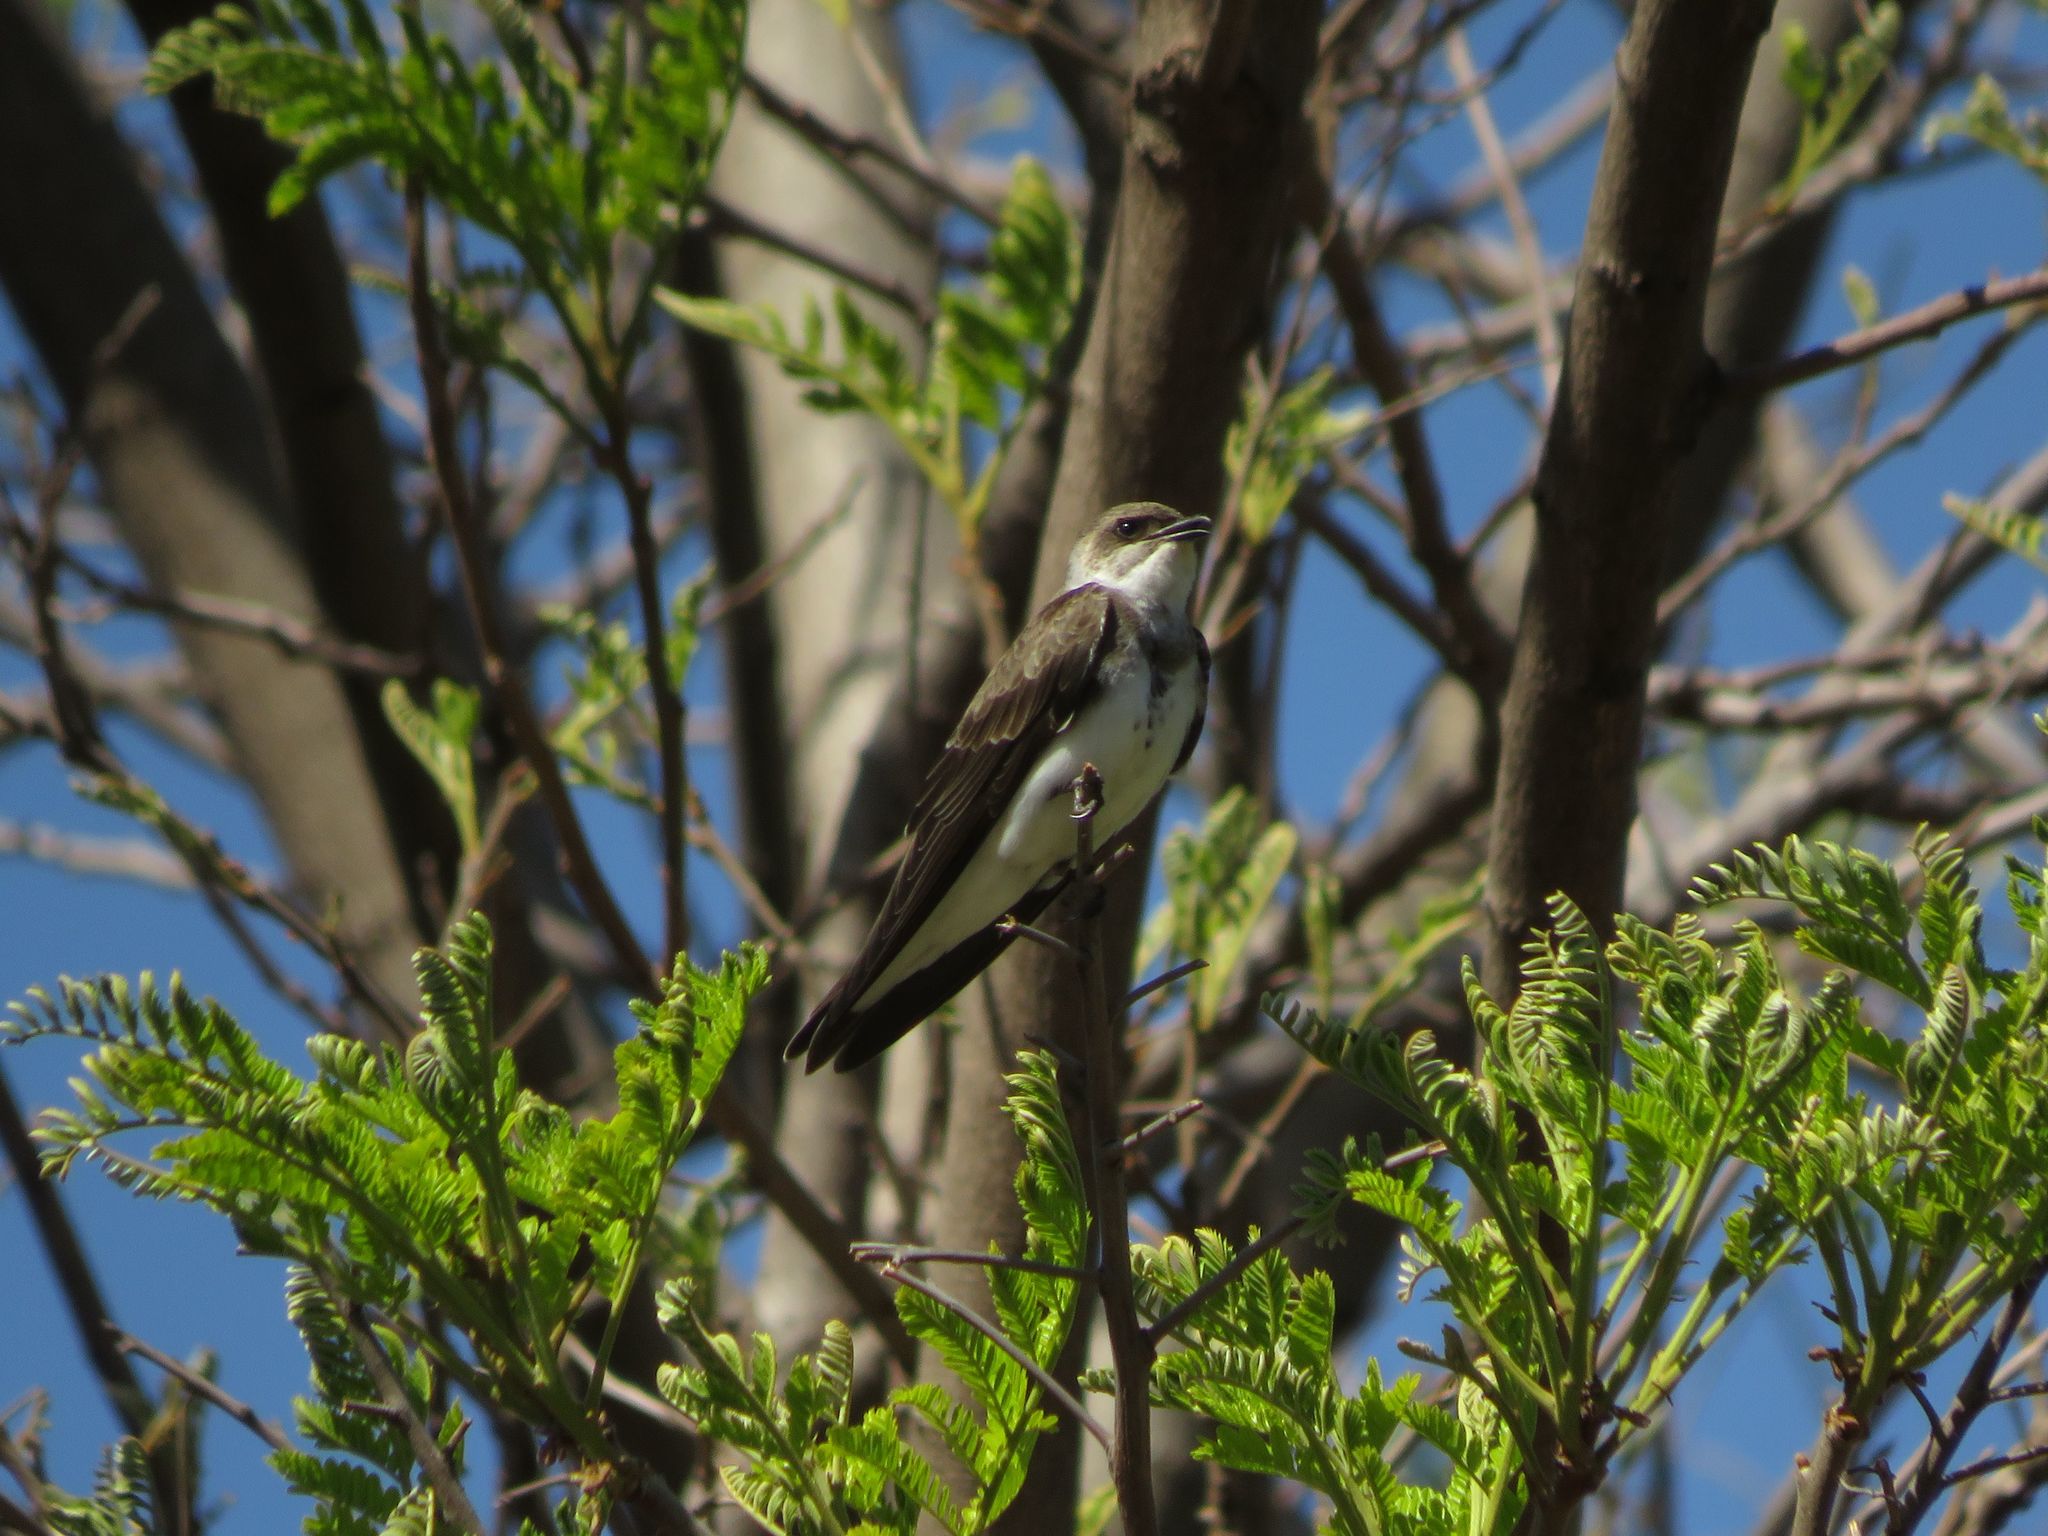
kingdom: Animalia
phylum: Chordata
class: Aves
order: Passeriformes
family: Hirundinidae
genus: Progne
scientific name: Progne tapera
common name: Brown-chested martin
